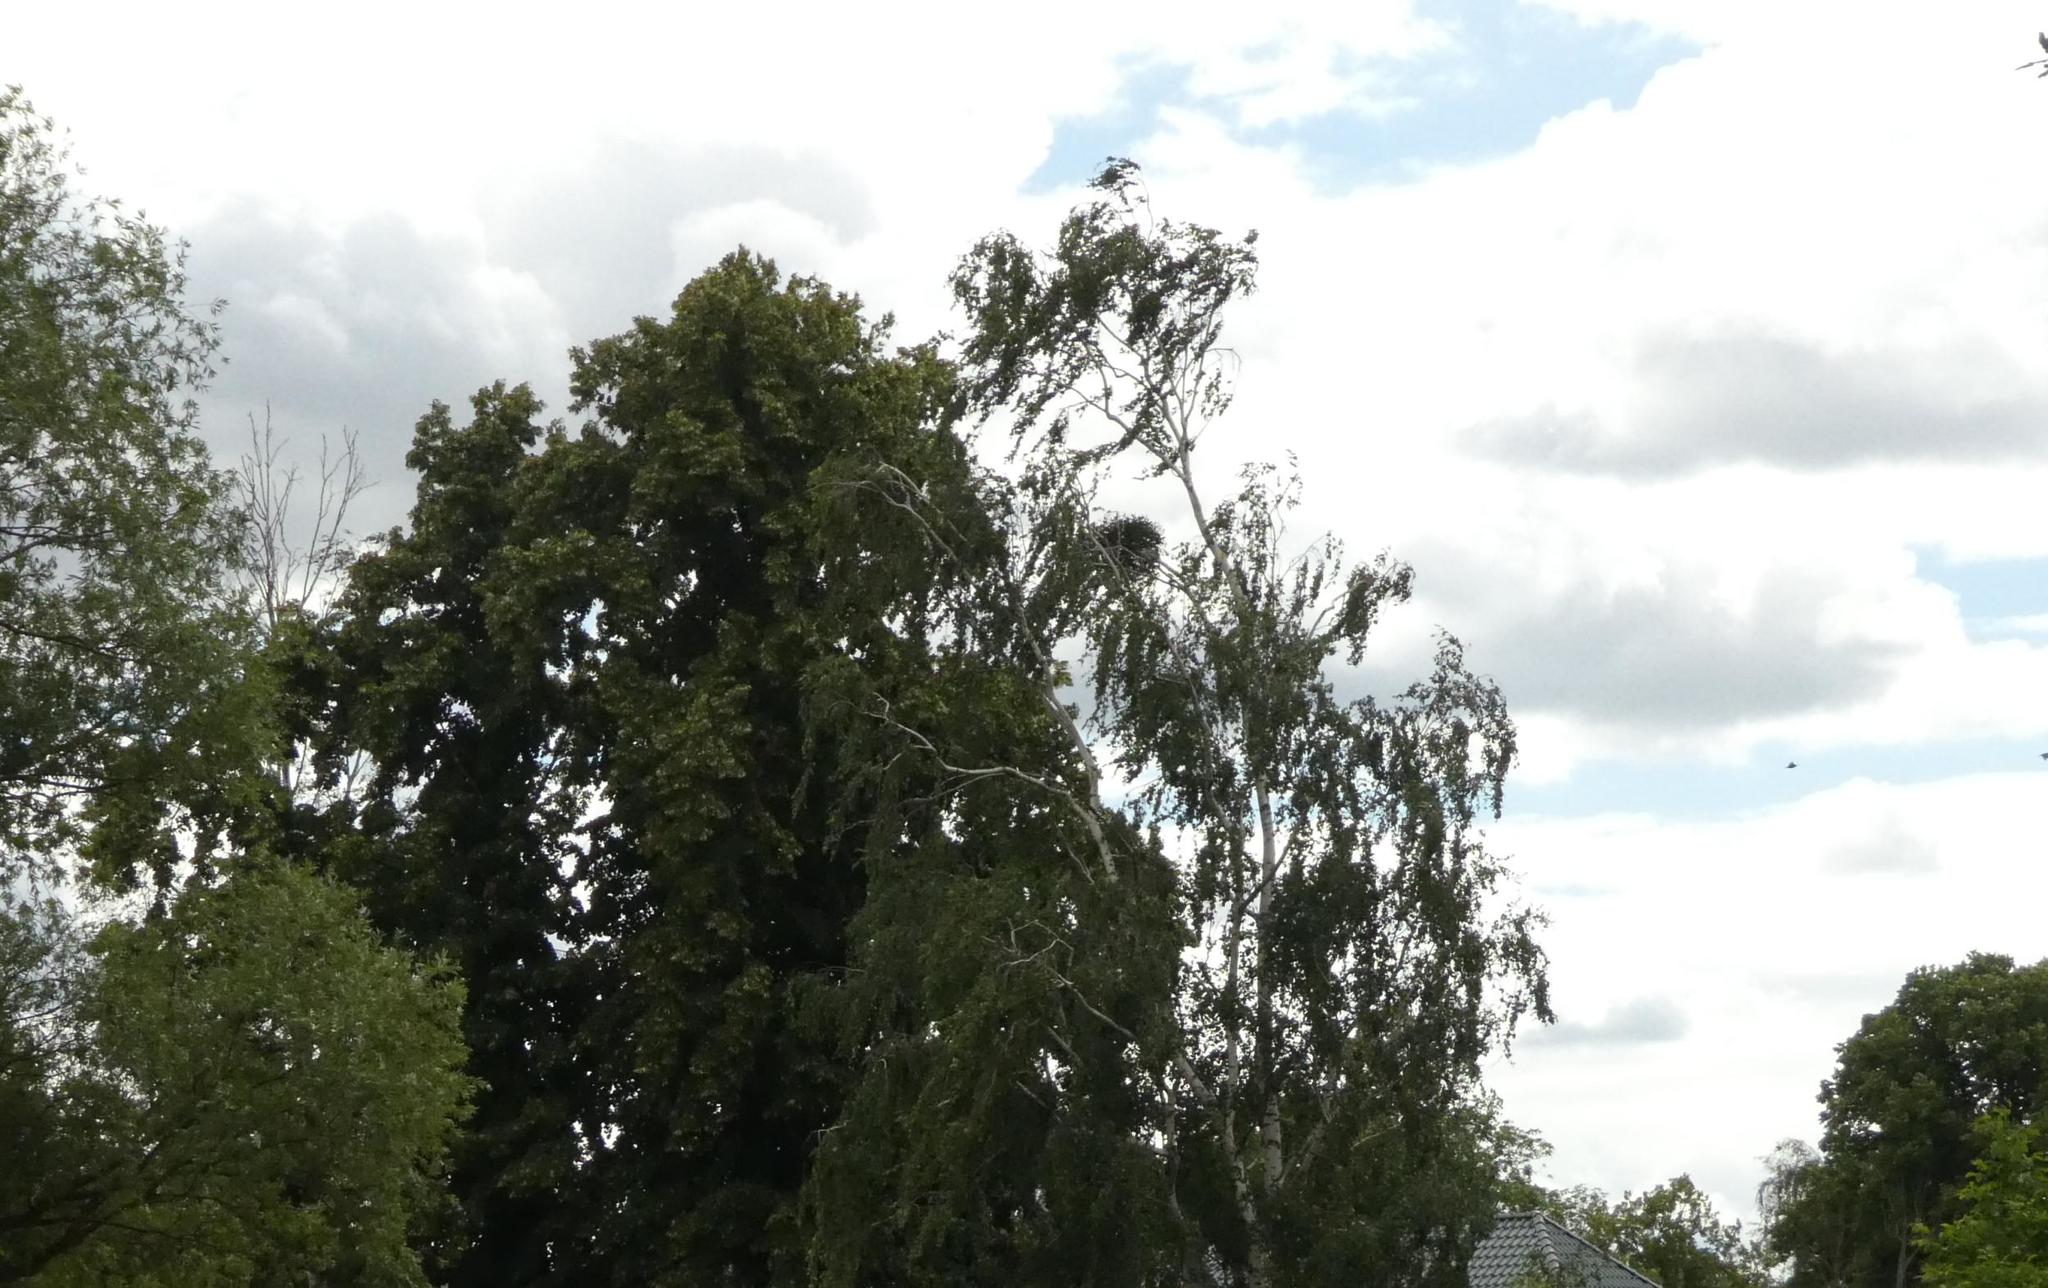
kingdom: Plantae
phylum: Tracheophyta
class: Magnoliopsida
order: Santalales
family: Viscaceae
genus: Viscum
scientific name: Viscum album
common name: Mistletoe
